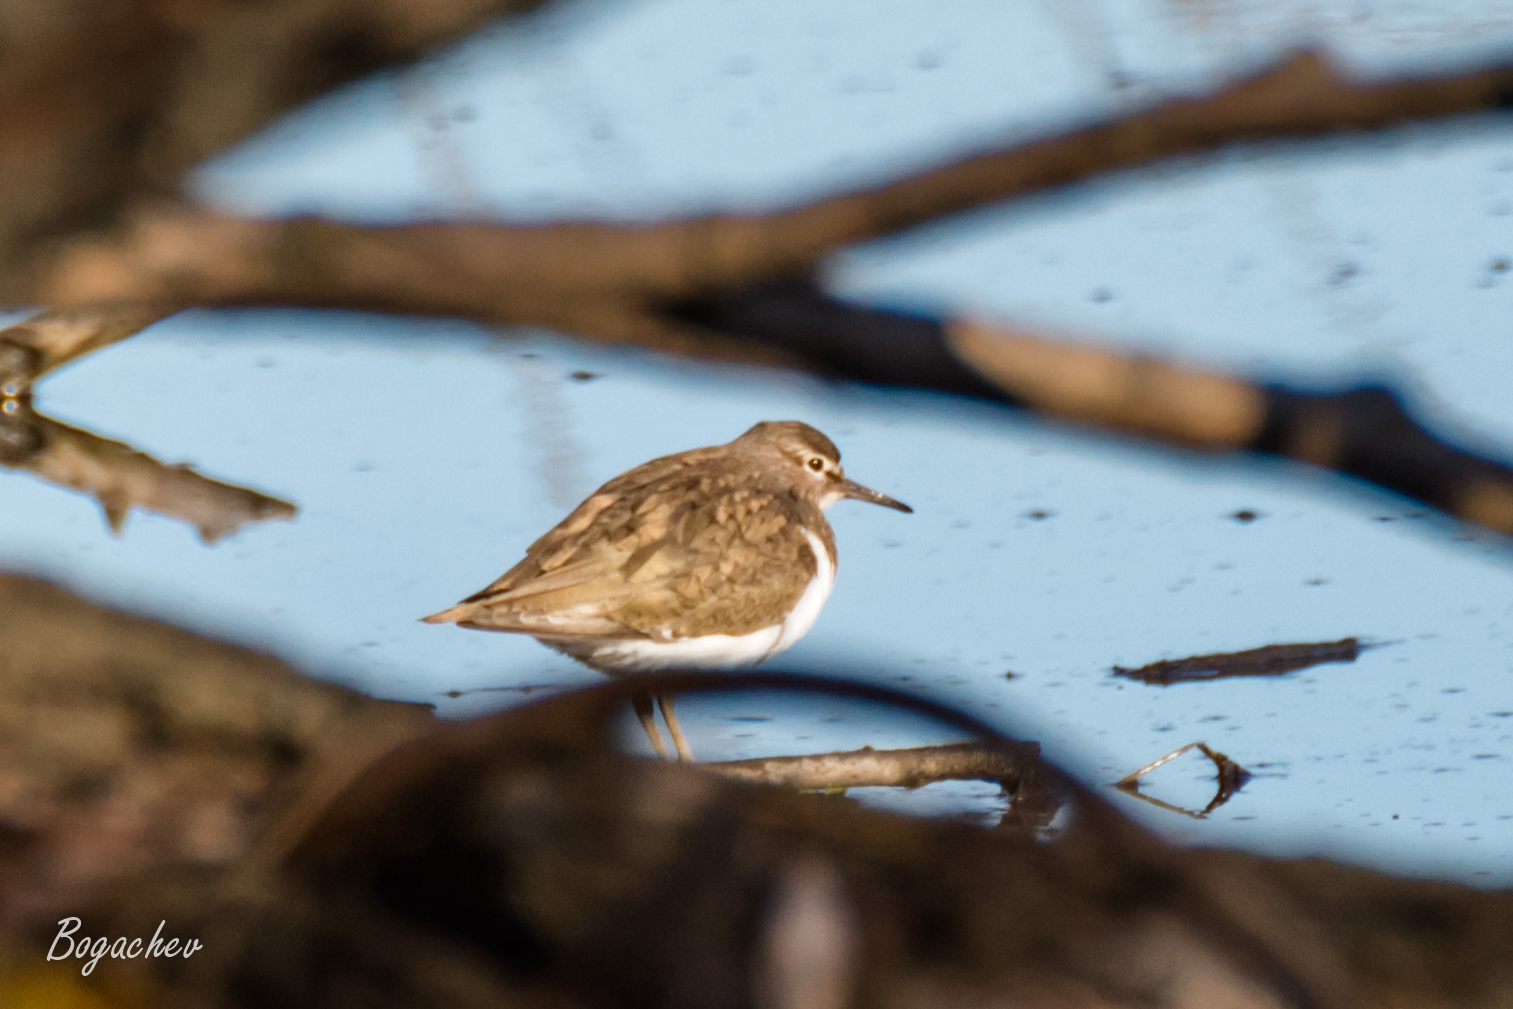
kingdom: Animalia
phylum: Chordata
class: Aves
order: Charadriiformes
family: Scolopacidae
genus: Actitis
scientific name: Actitis hypoleucos
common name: Common sandpiper
